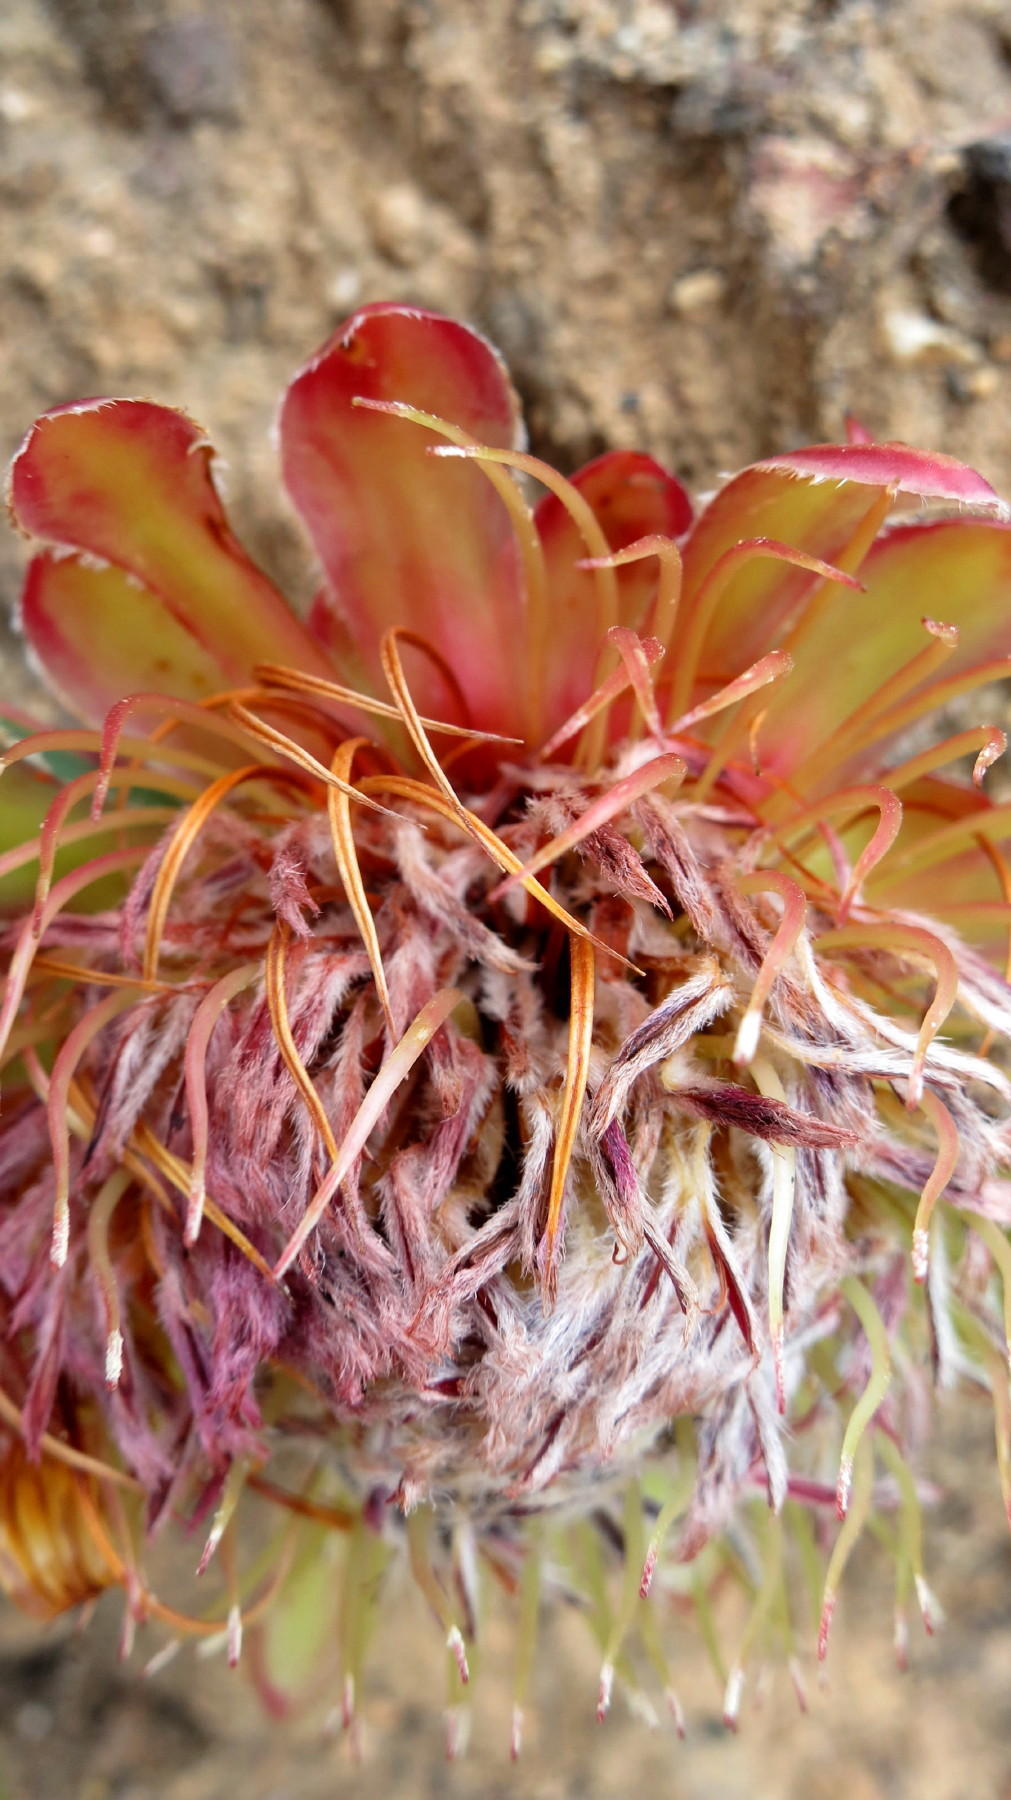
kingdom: Plantae
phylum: Tracheophyta
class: Magnoliopsida
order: Proteales
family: Proteaceae
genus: Protea
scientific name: Protea acaulos
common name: Common ground sugarbush
